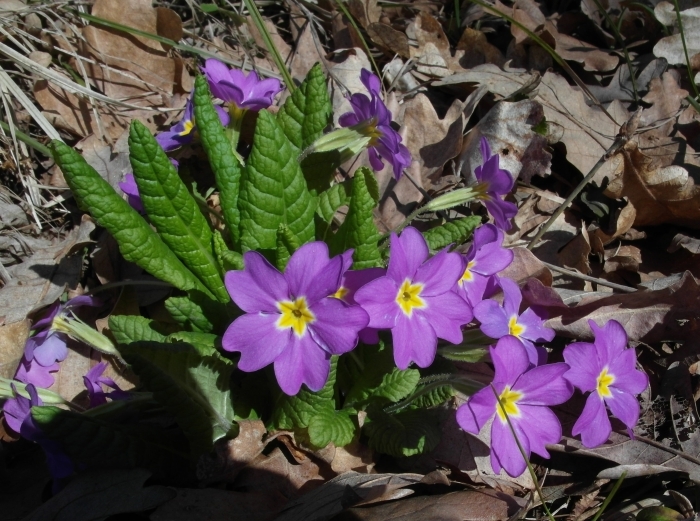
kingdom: Plantae
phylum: Tracheophyta
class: Magnoliopsida
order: Ericales
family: Primulaceae
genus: Primula
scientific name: Primula vulgaris
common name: Primrose
